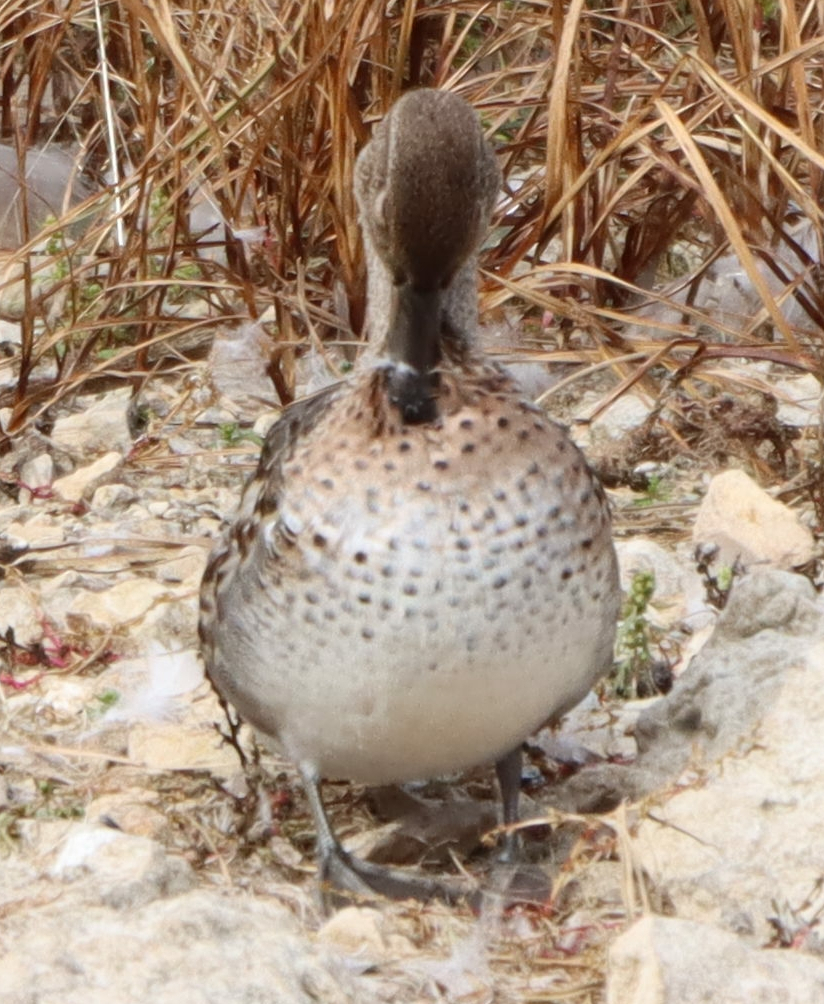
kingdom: Animalia
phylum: Chordata
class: Aves
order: Anseriformes
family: Anatidae
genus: Anas
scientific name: Anas crecca
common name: Eurasian teal
